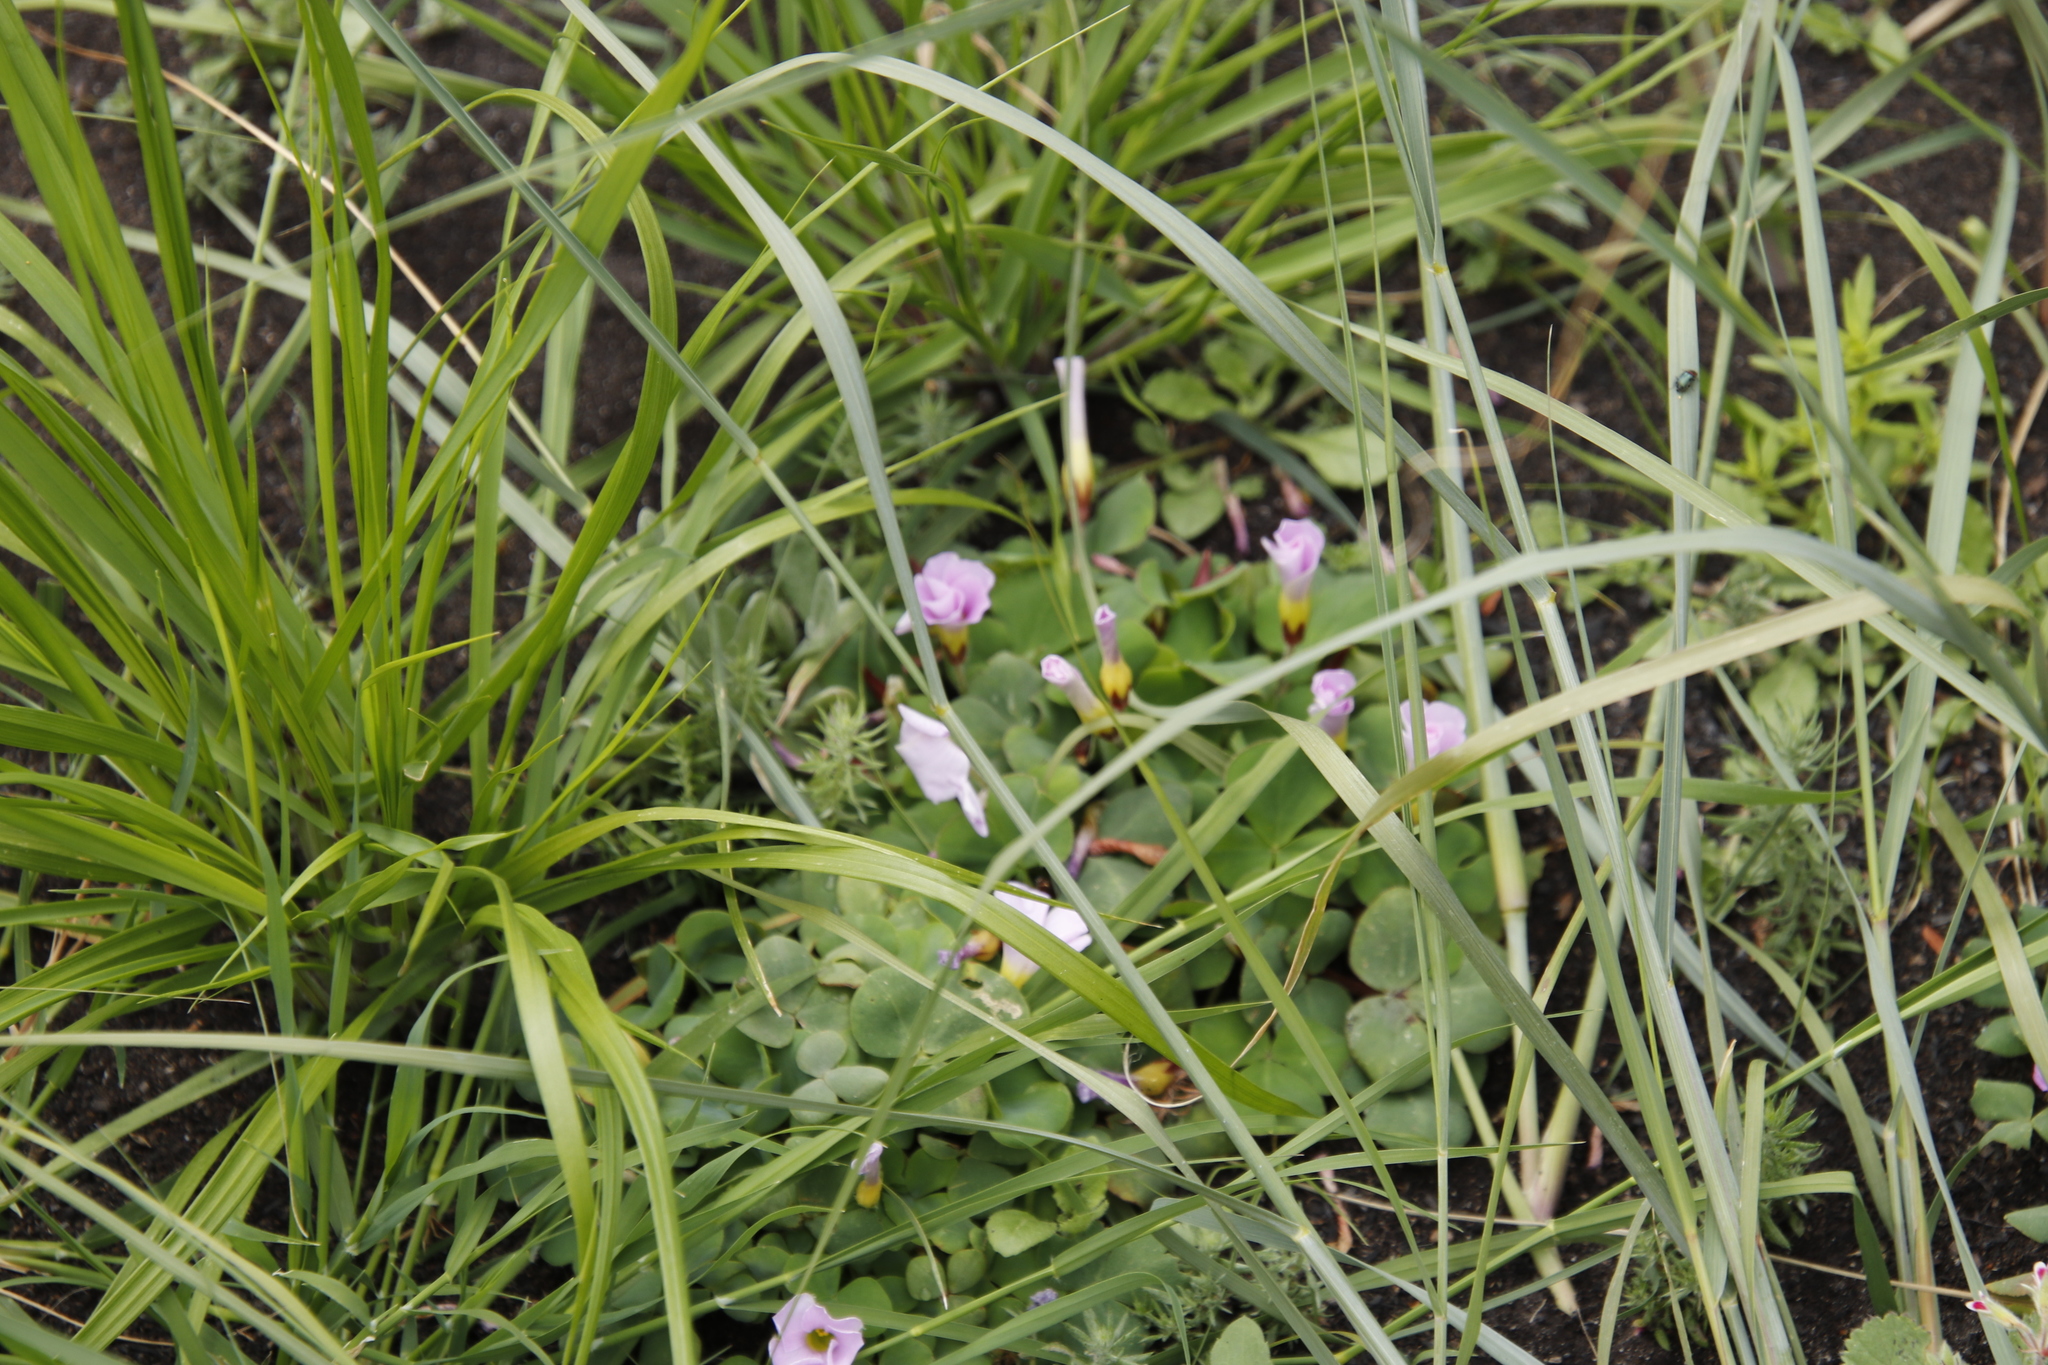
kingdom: Plantae
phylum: Tracheophyta
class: Magnoliopsida
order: Oxalidales
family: Oxalidaceae
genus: Oxalis
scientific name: Oxalis purpurea
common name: Purple woodsorrel
